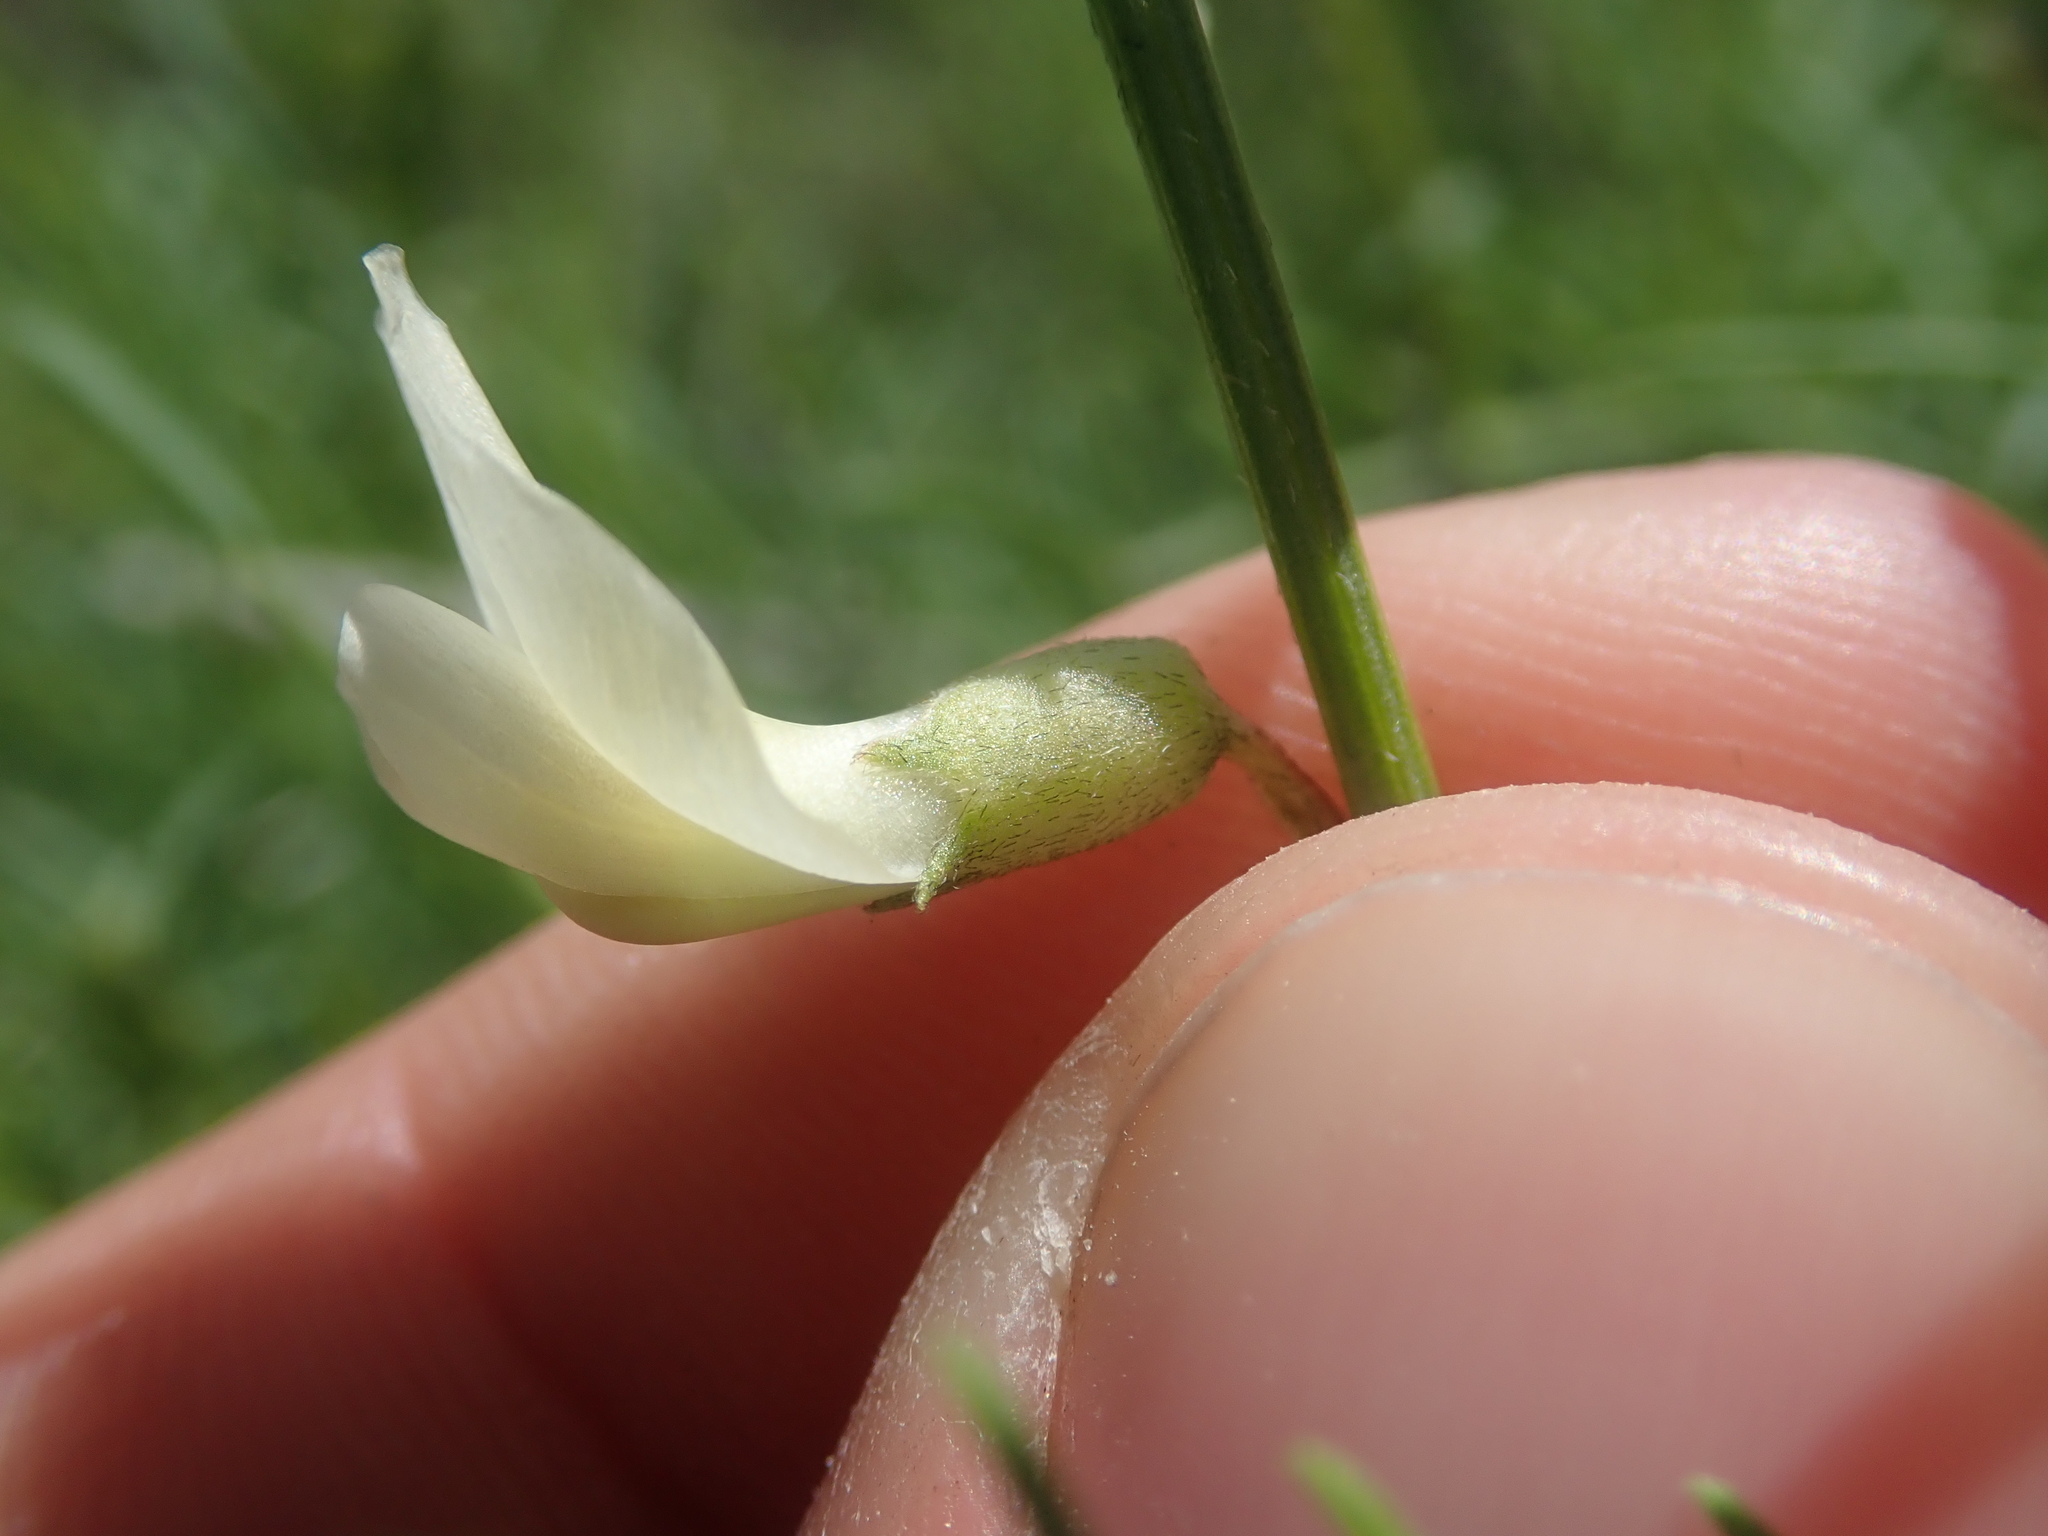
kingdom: Plantae
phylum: Tracheophyta
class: Magnoliopsida
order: Fabales
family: Fabaceae
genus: Astragalus
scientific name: Astragalus filipes
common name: Basalt milk-vetch
